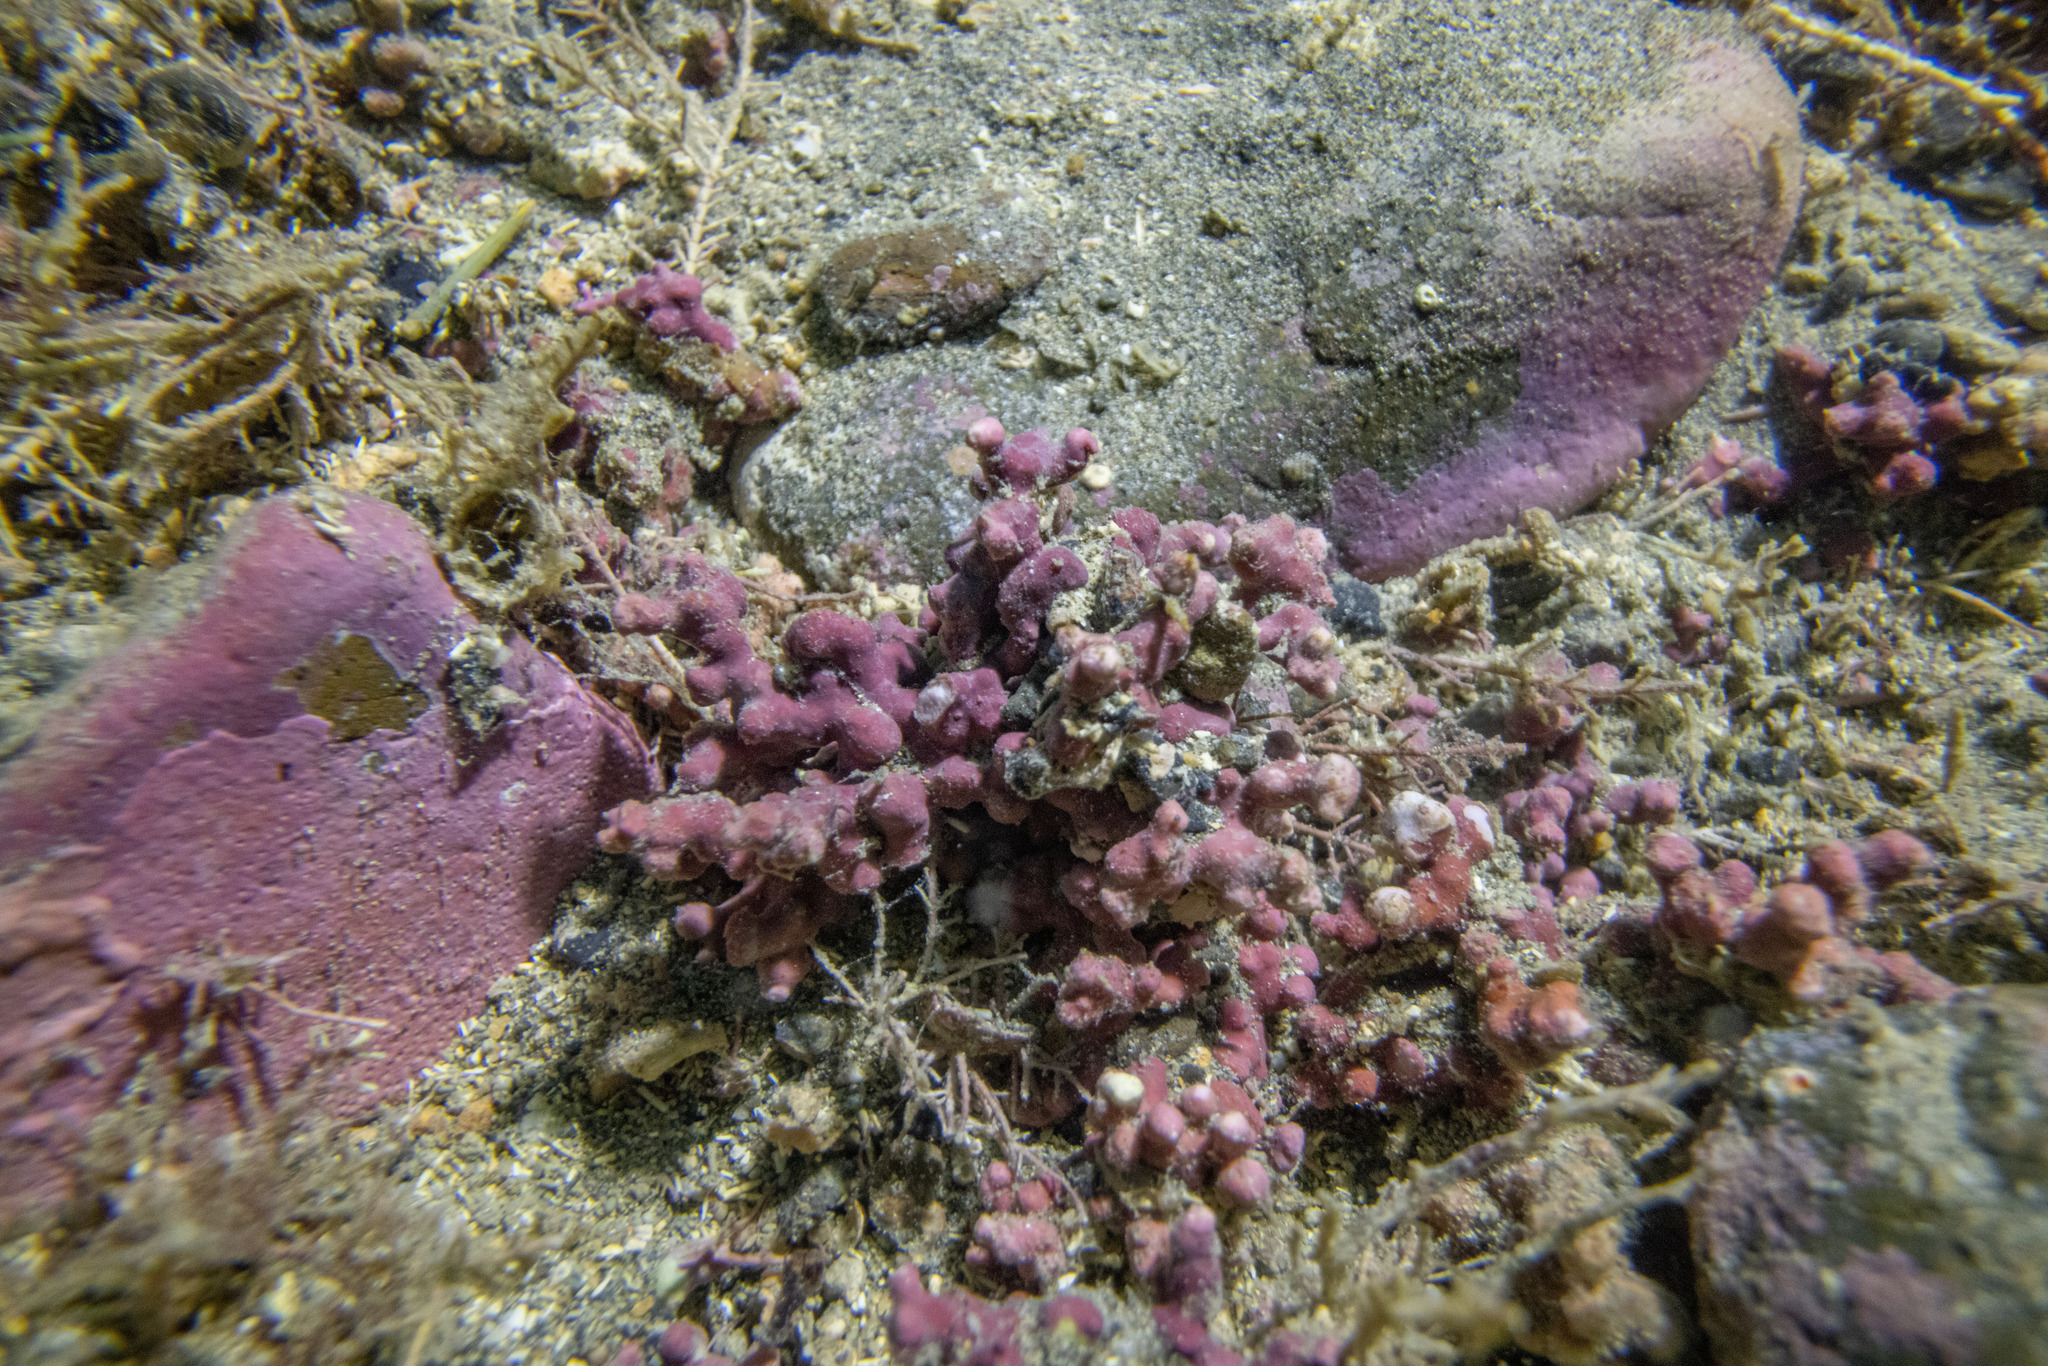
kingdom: Plantae
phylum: Rhodophyta
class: Florideophyceae
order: Corallinales
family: Sporolithaceae
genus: Sporolithon
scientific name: Sporolithon durum
